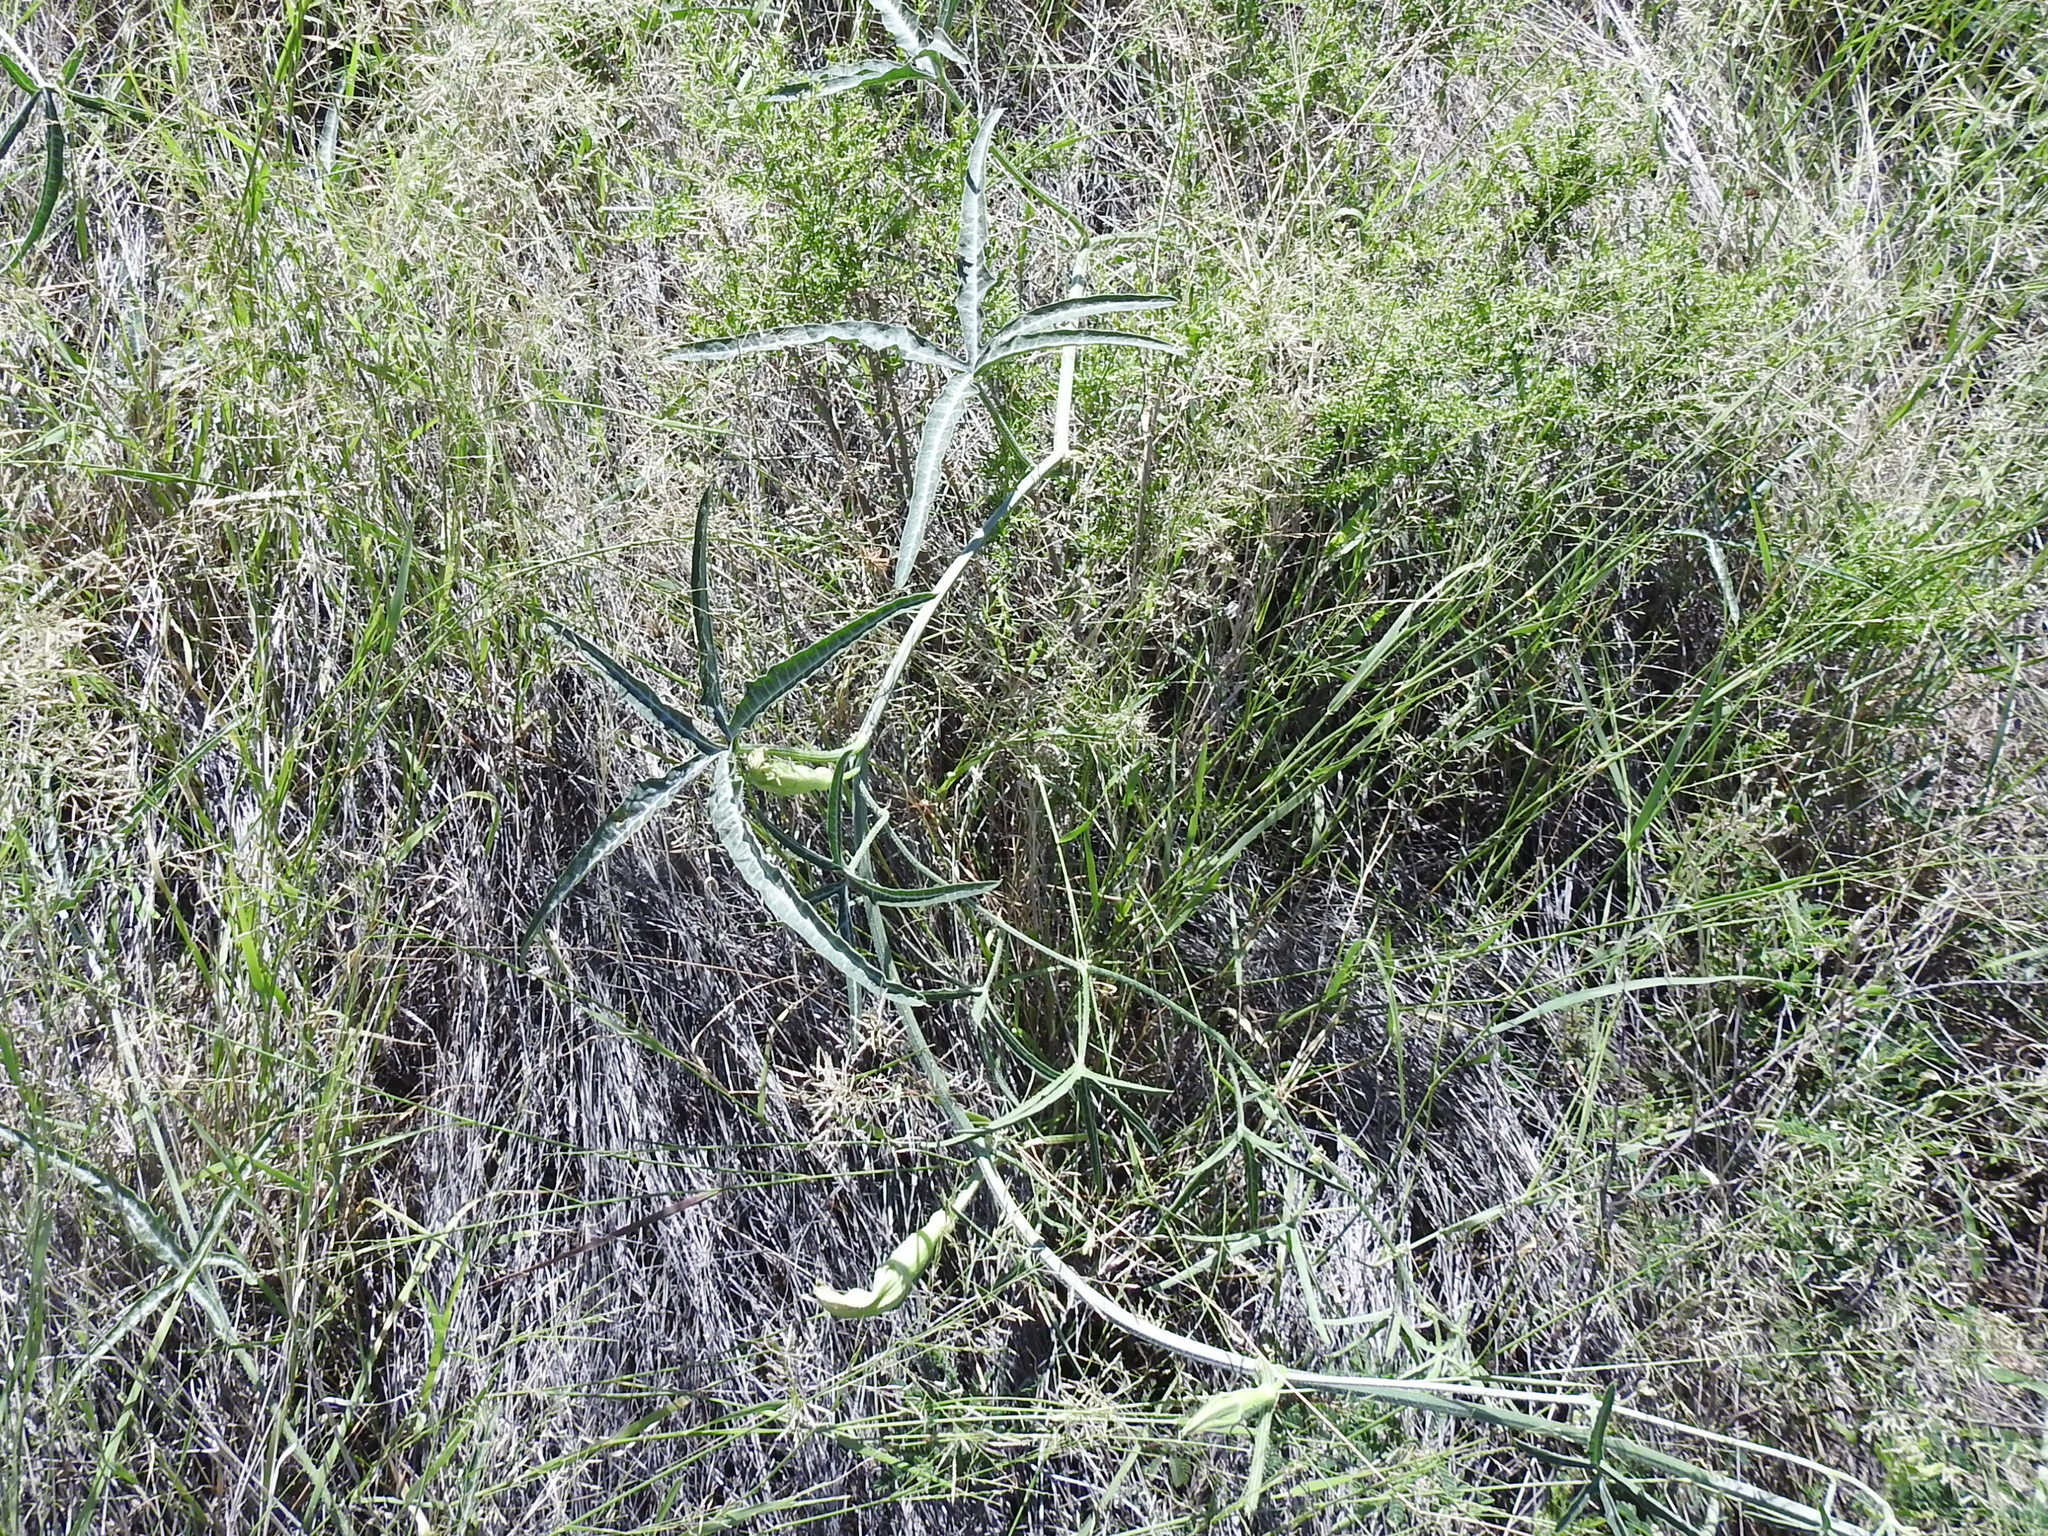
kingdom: Plantae
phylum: Tracheophyta
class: Magnoliopsida
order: Cucurbitales
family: Cucurbitaceae
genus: Cucurbita
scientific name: Cucurbita digitata
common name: Finger-leaf gourd
